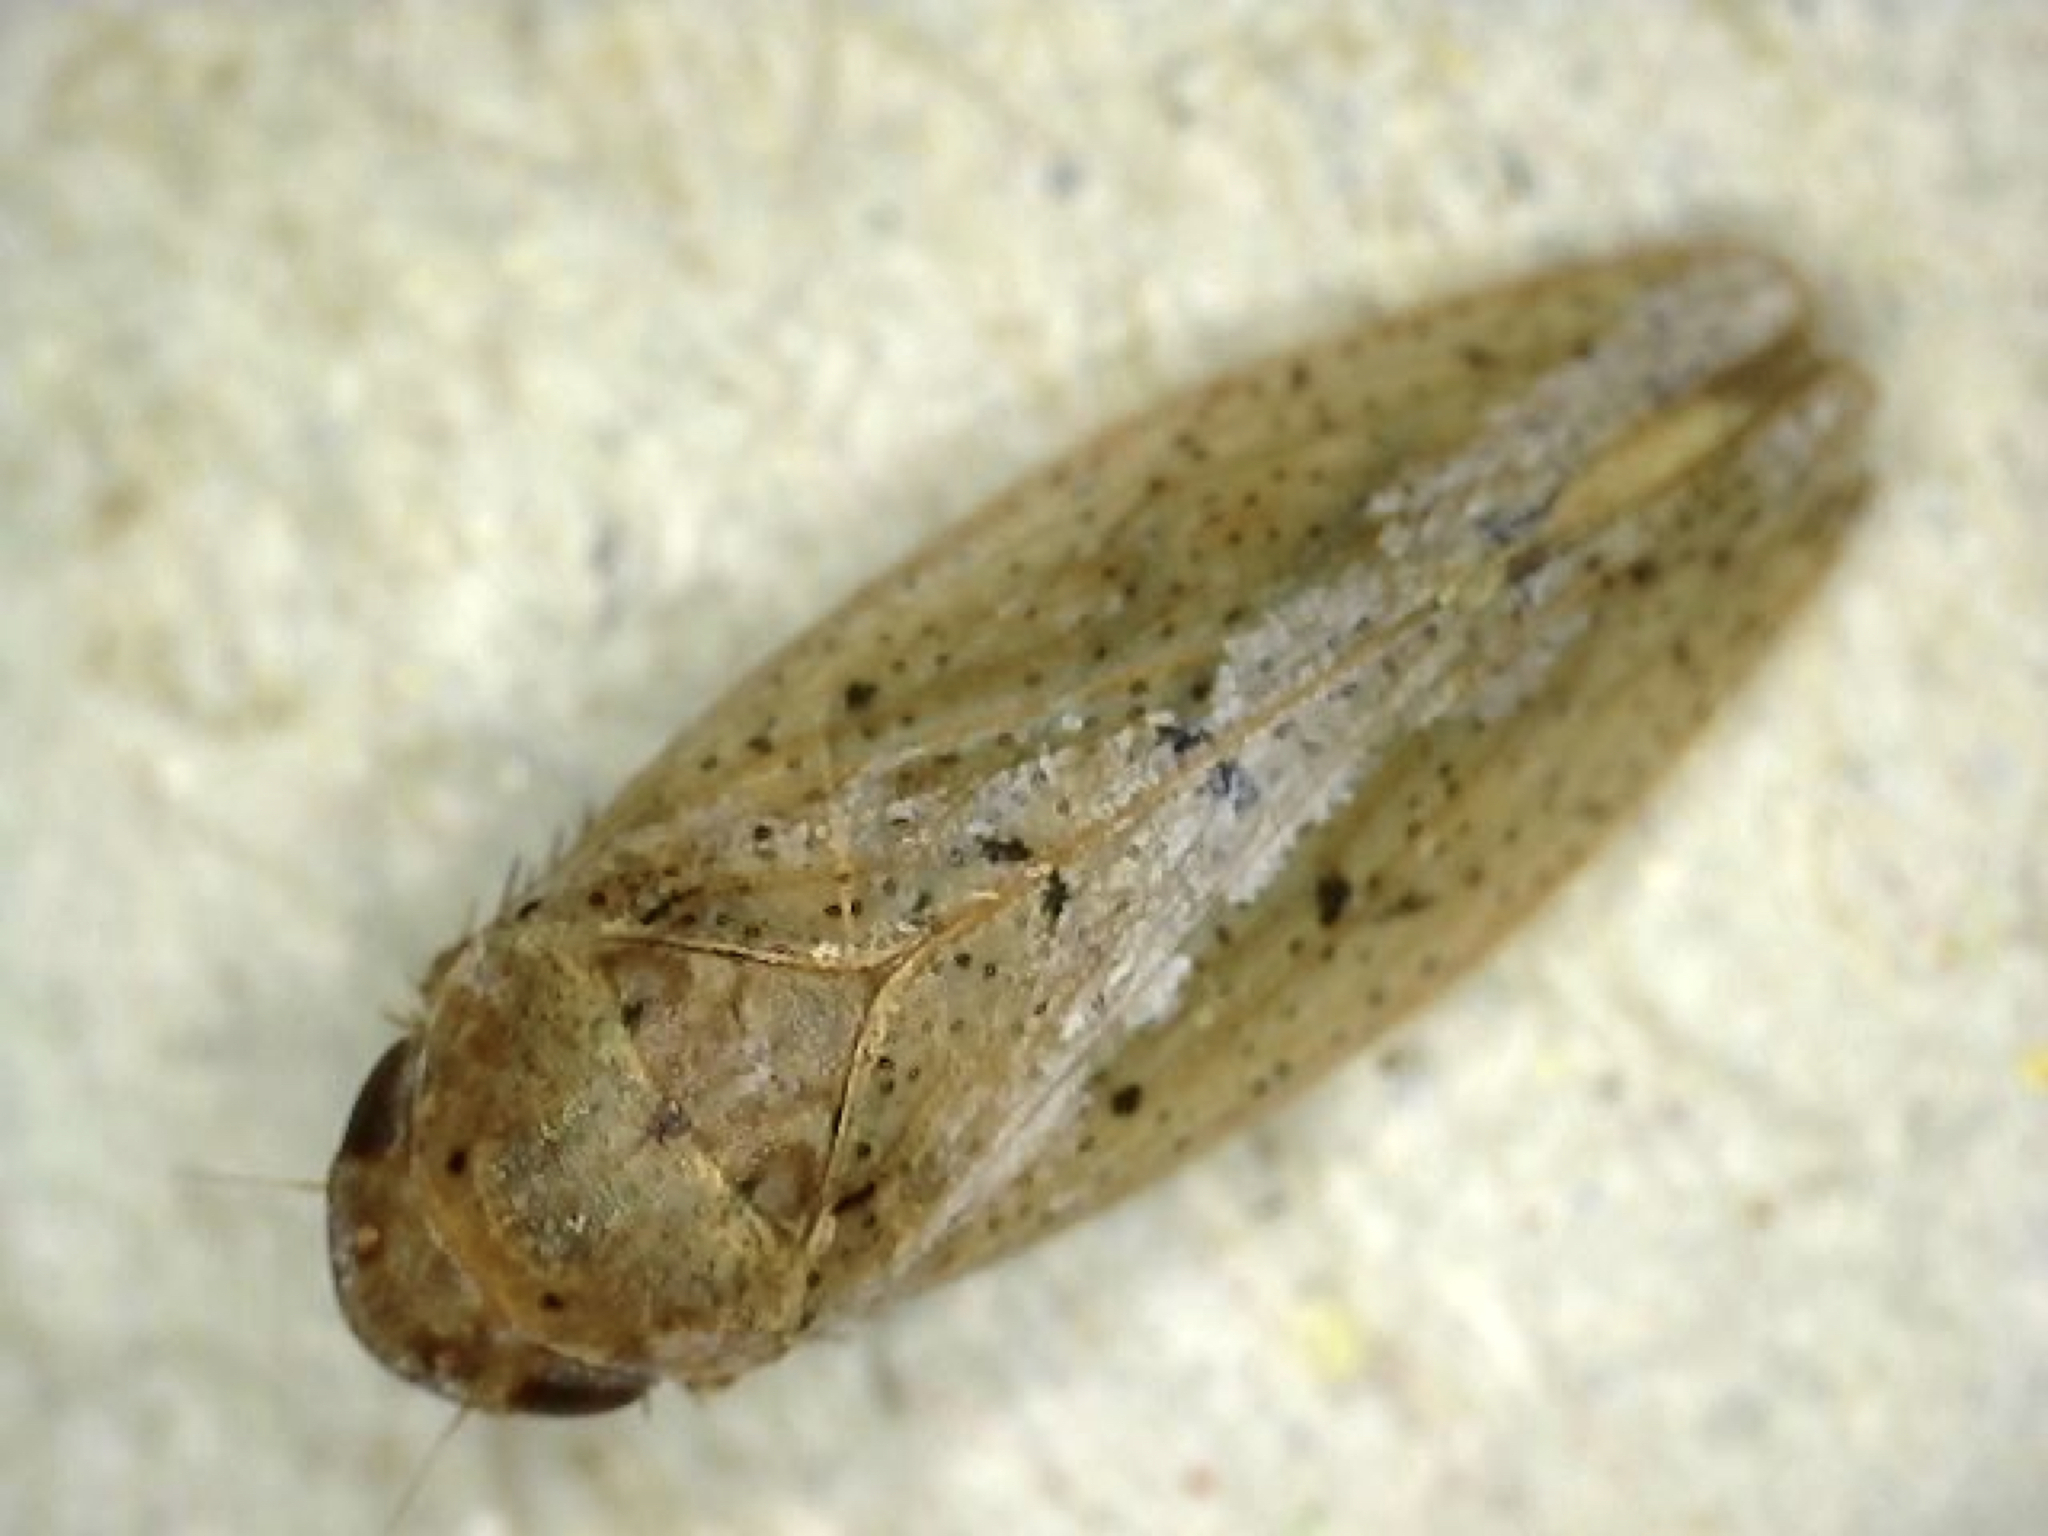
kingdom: Animalia
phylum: Arthropoda
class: Insecta
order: Hemiptera
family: Cicadellidae
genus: Ponana
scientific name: Ponana puncticollis
